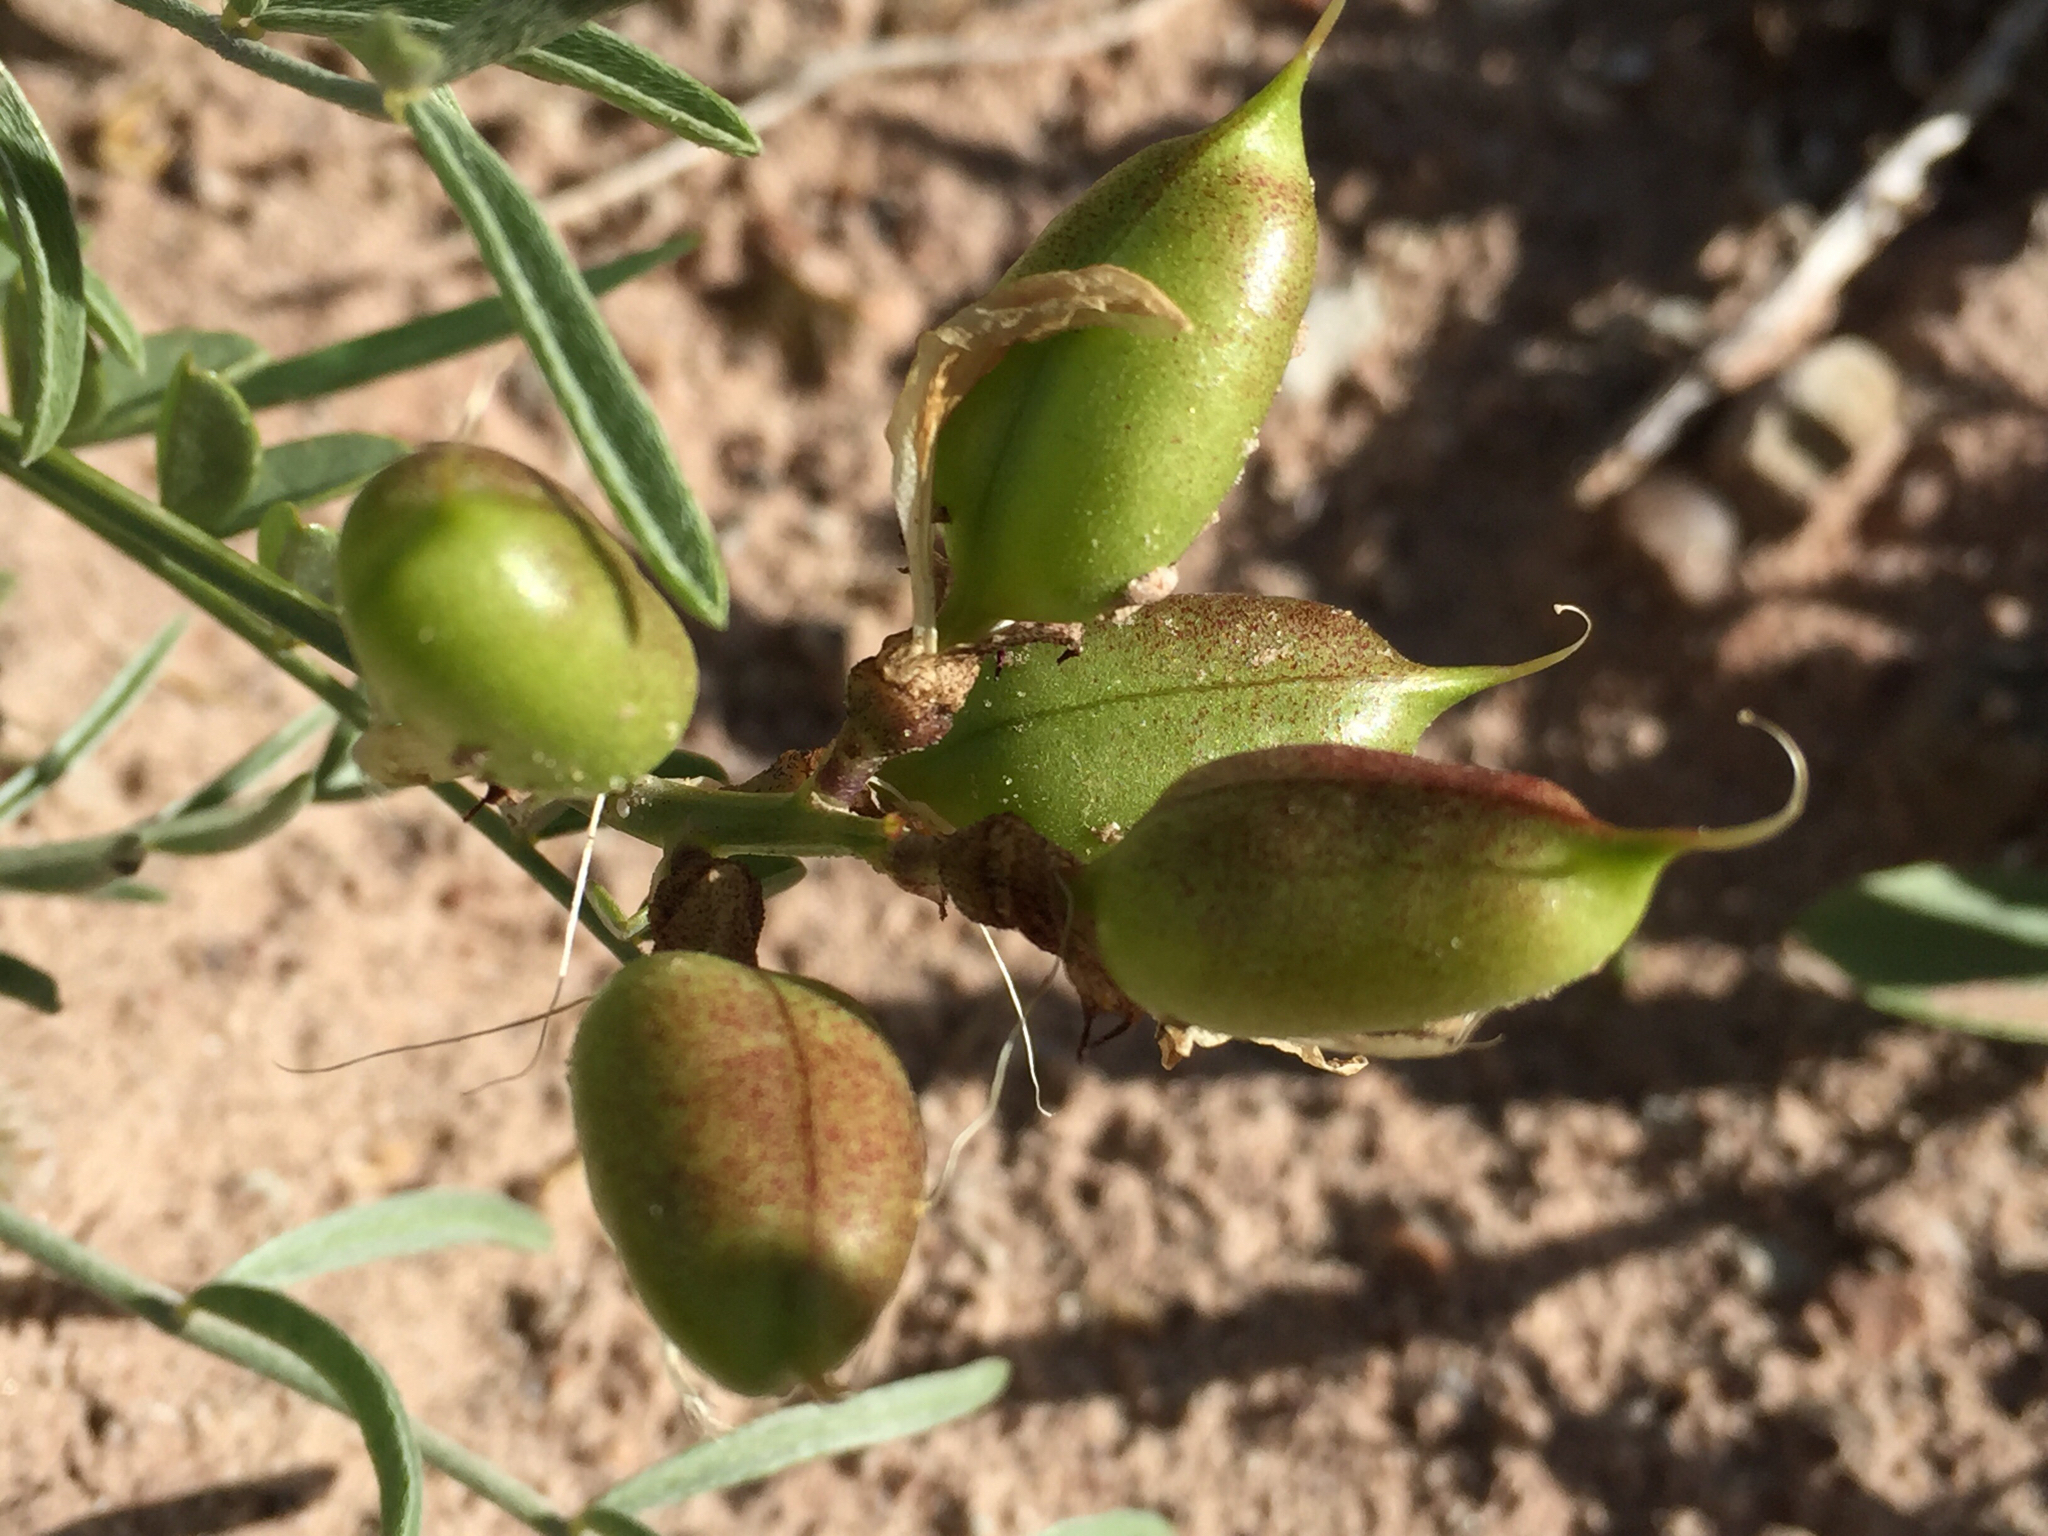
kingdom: Plantae
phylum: Tracheophyta
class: Magnoliopsida
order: Fabales
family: Fabaceae
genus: Astragalus
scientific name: Astragalus preussii
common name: Preuss's milk-vetch
